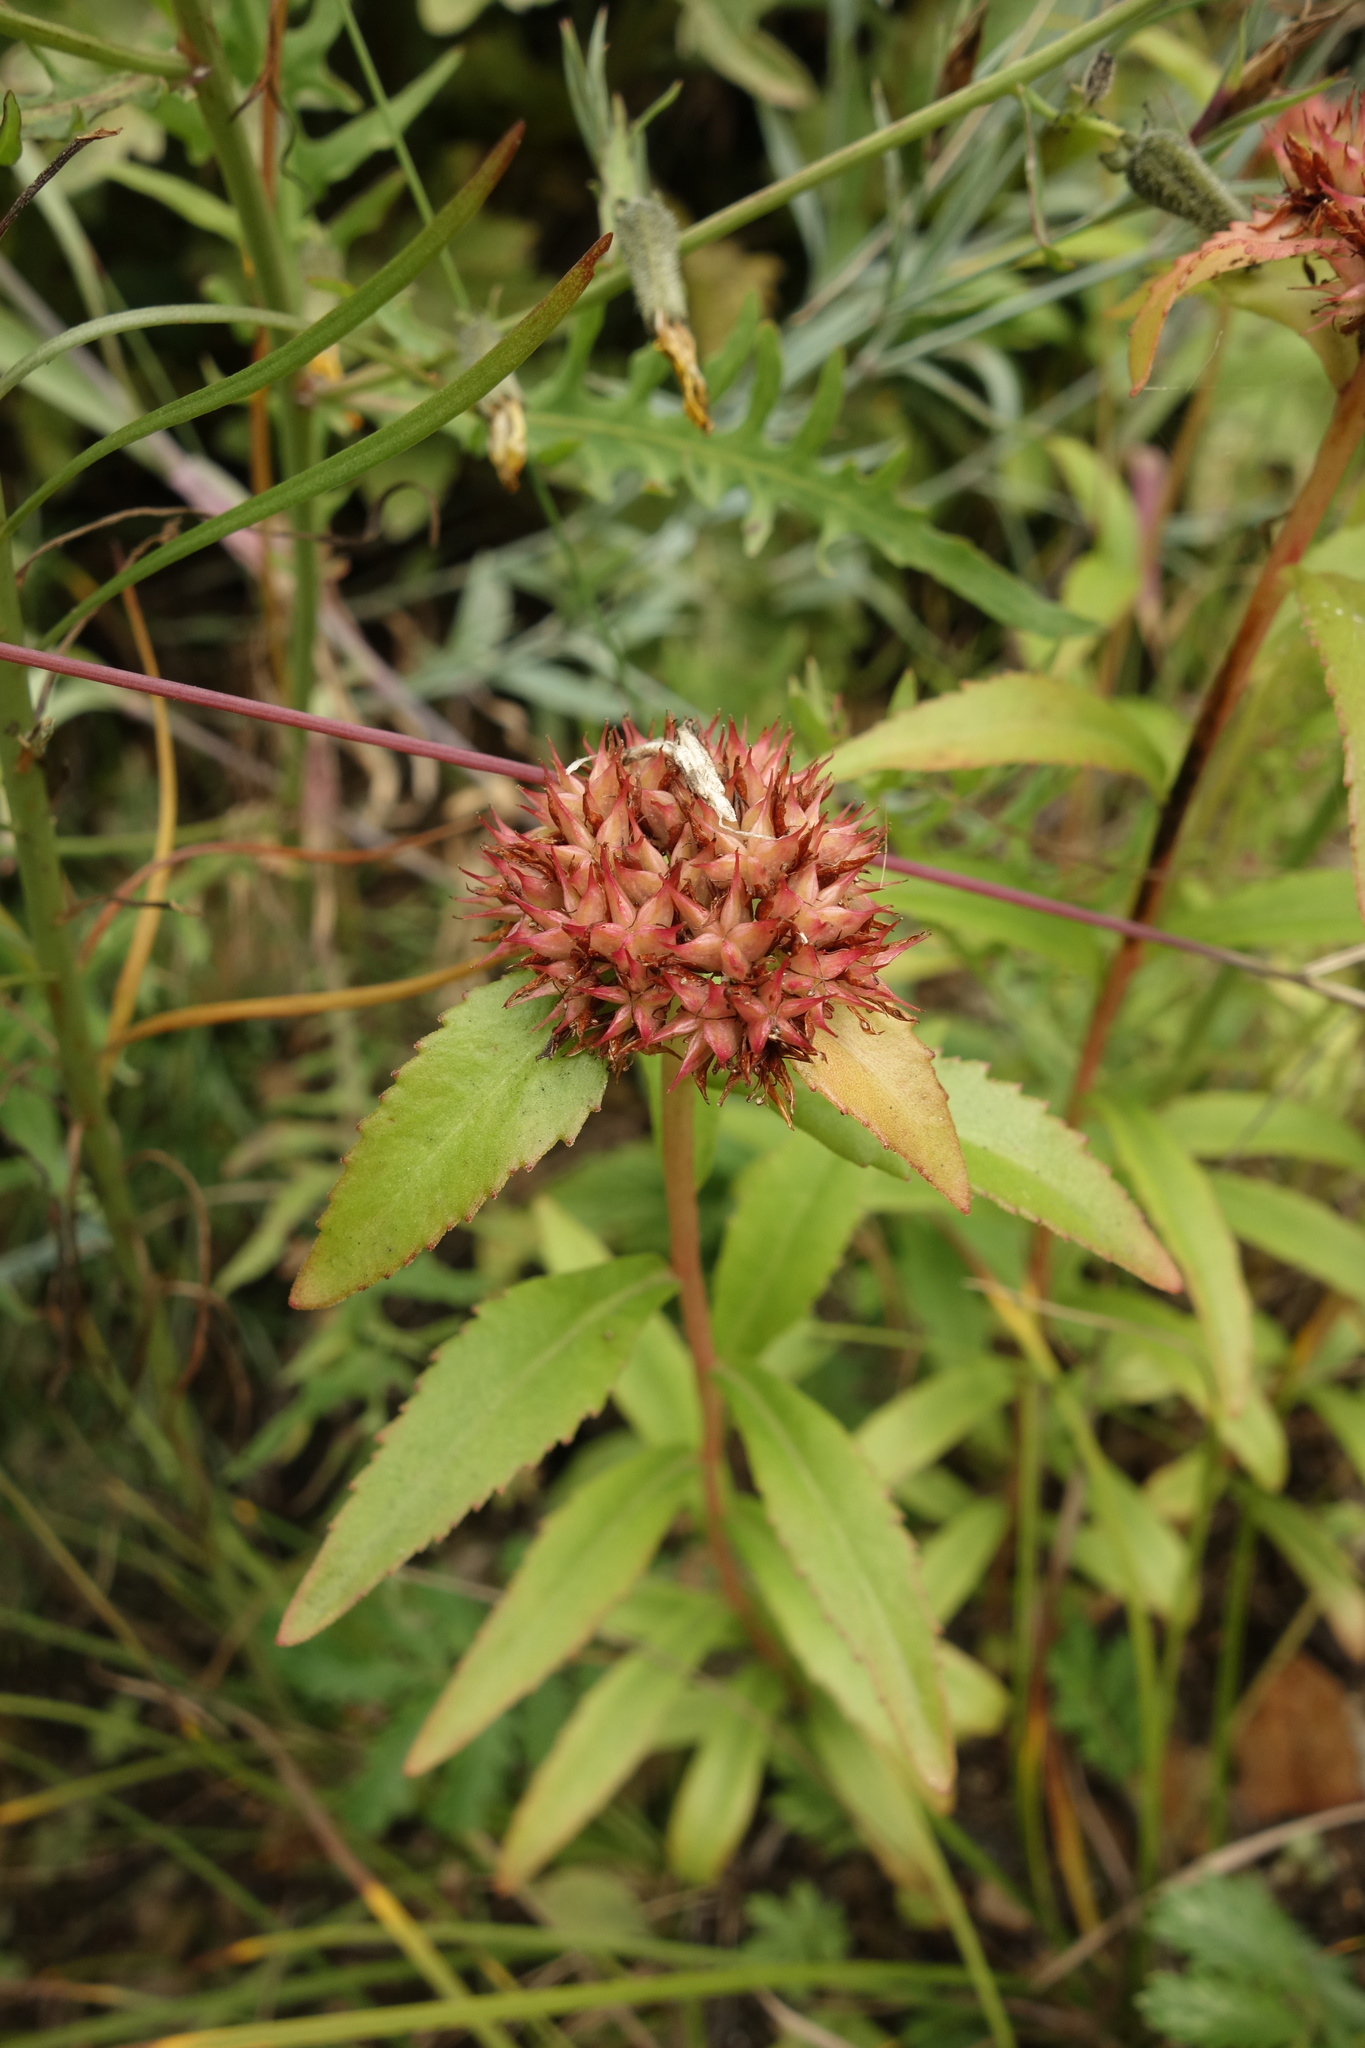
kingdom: Plantae
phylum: Tracheophyta
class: Magnoliopsida
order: Saxifragales
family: Crassulaceae
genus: Phedimus
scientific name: Phedimus aizoon
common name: Orpin aizoon
